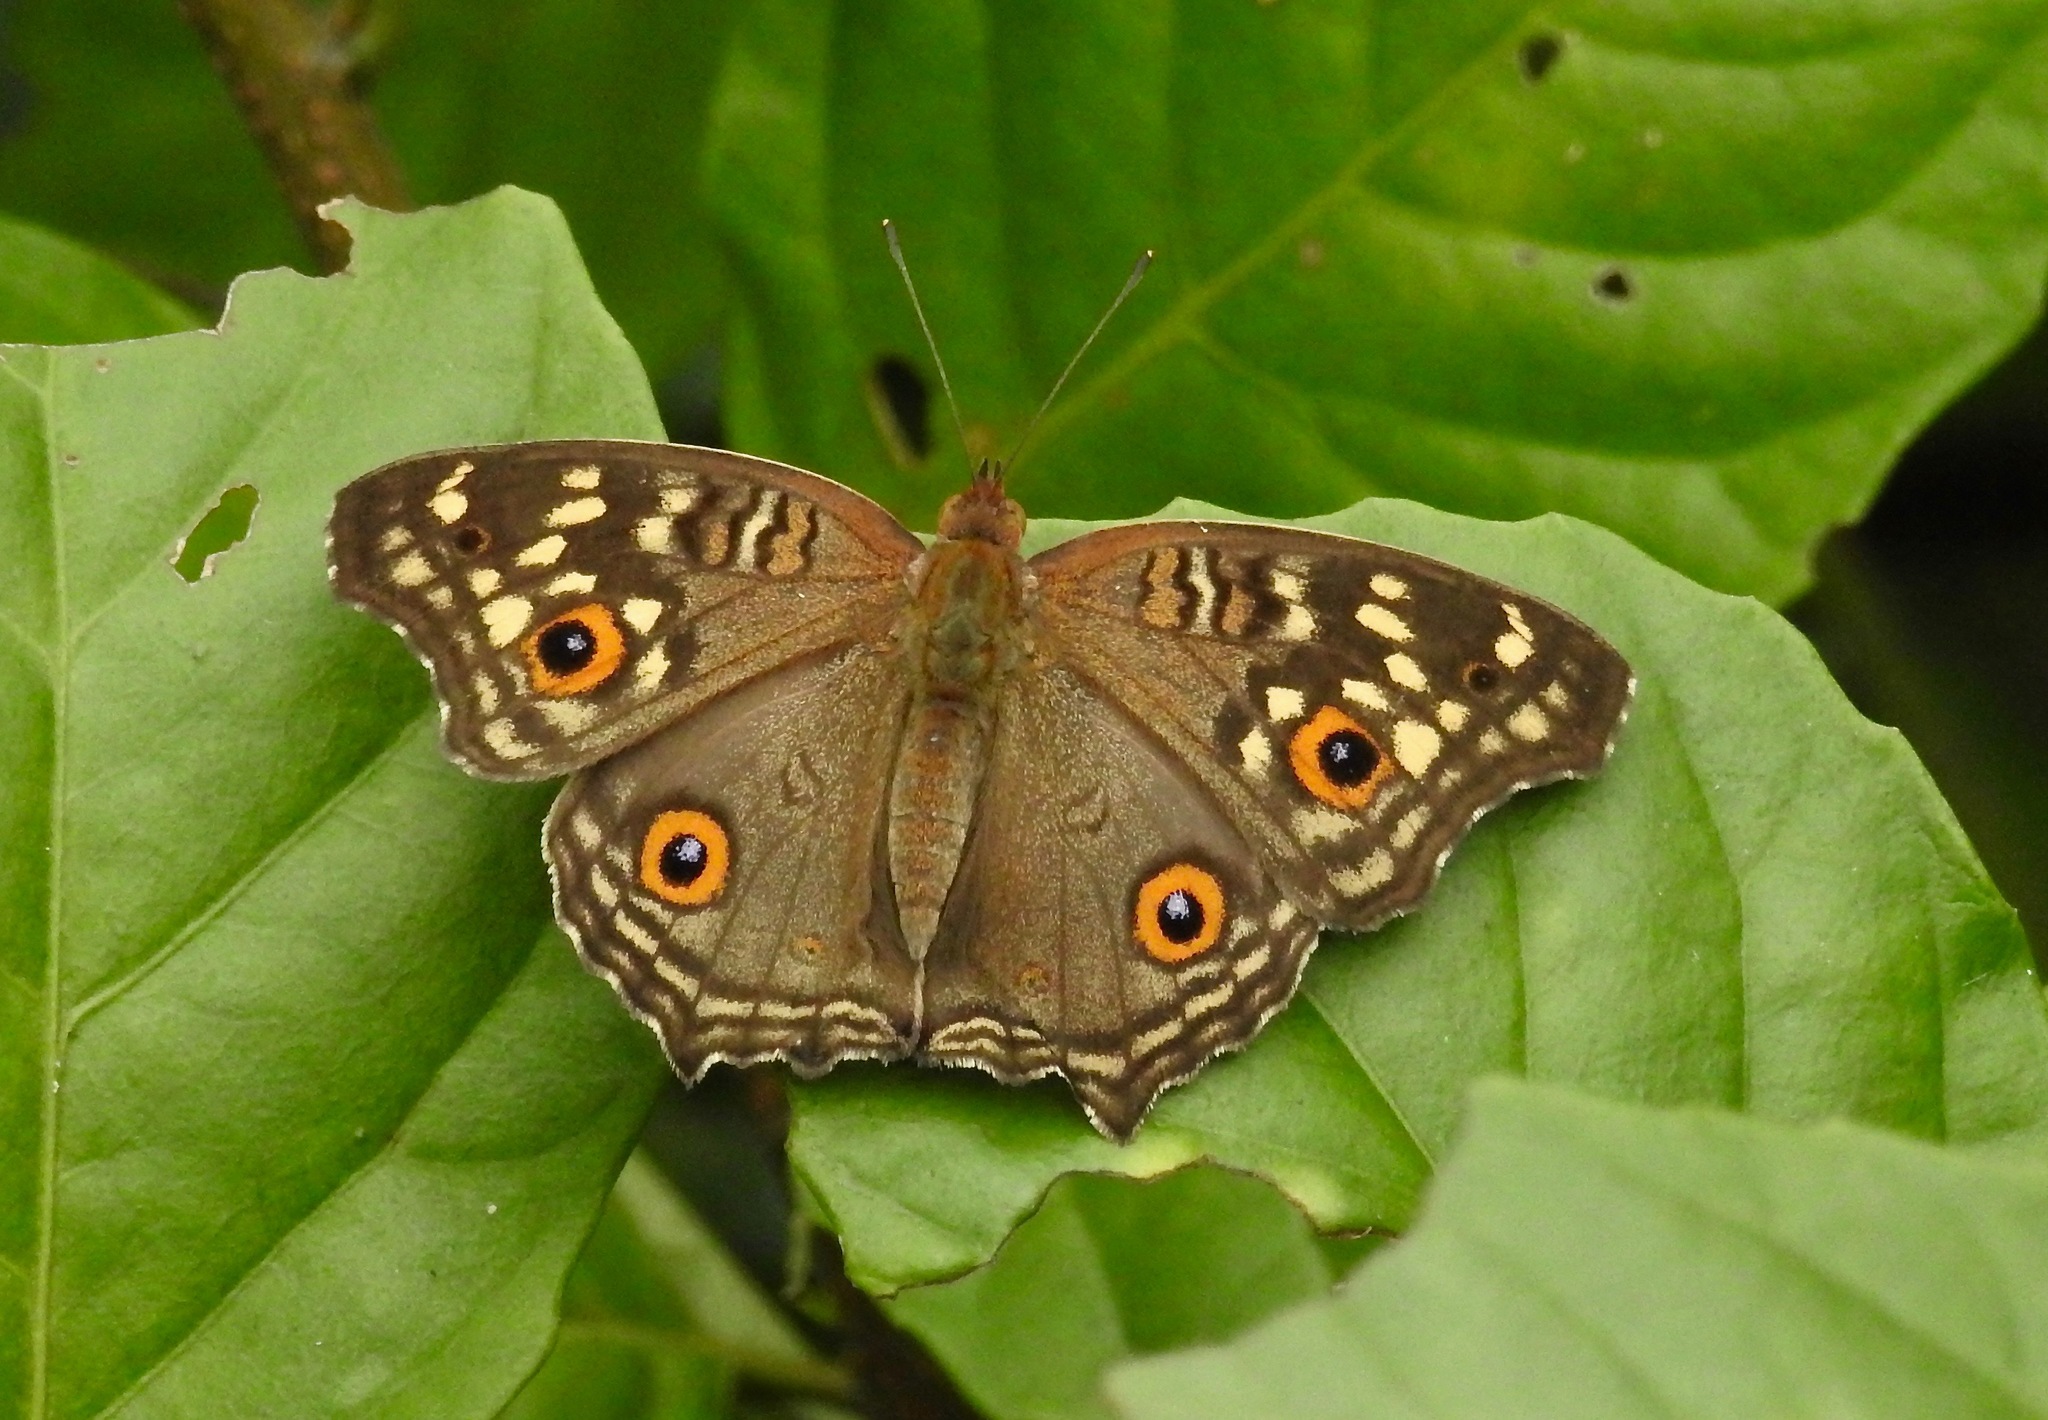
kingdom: Animalia
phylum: Arthropoda
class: Insecta
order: Lepidoptera
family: Nymphalidae
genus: Junonia
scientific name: Junonia lemonias
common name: Lemon pansy
